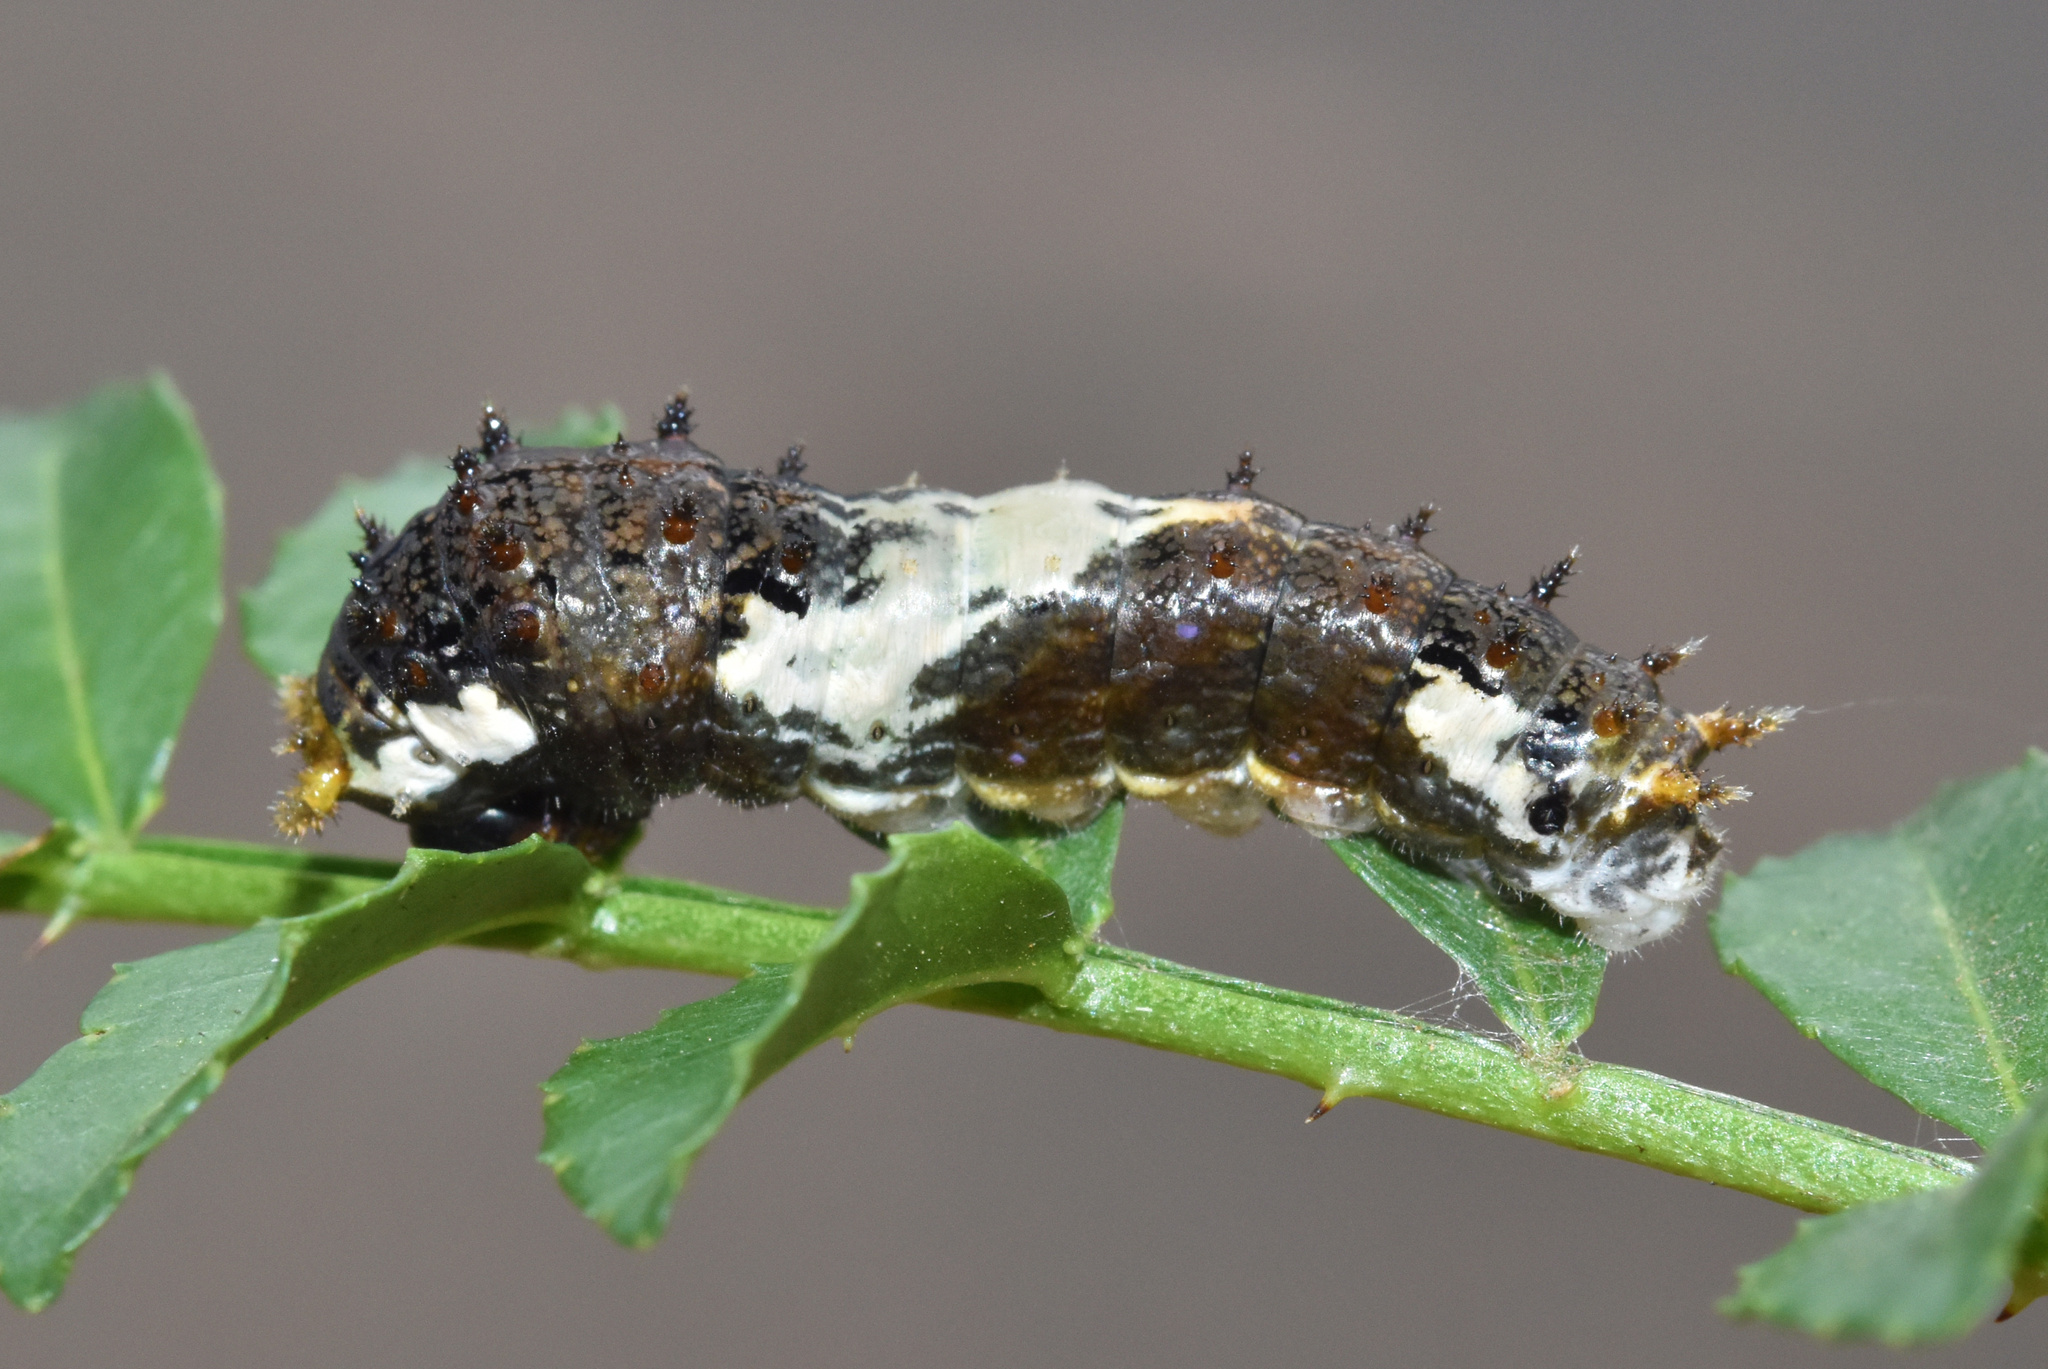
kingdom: Animalia
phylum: Arthropoda
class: Insecta
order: Lepidoptera
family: Papilionidae
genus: Papilio
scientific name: Papilio demodocus
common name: Christmas butterfly
